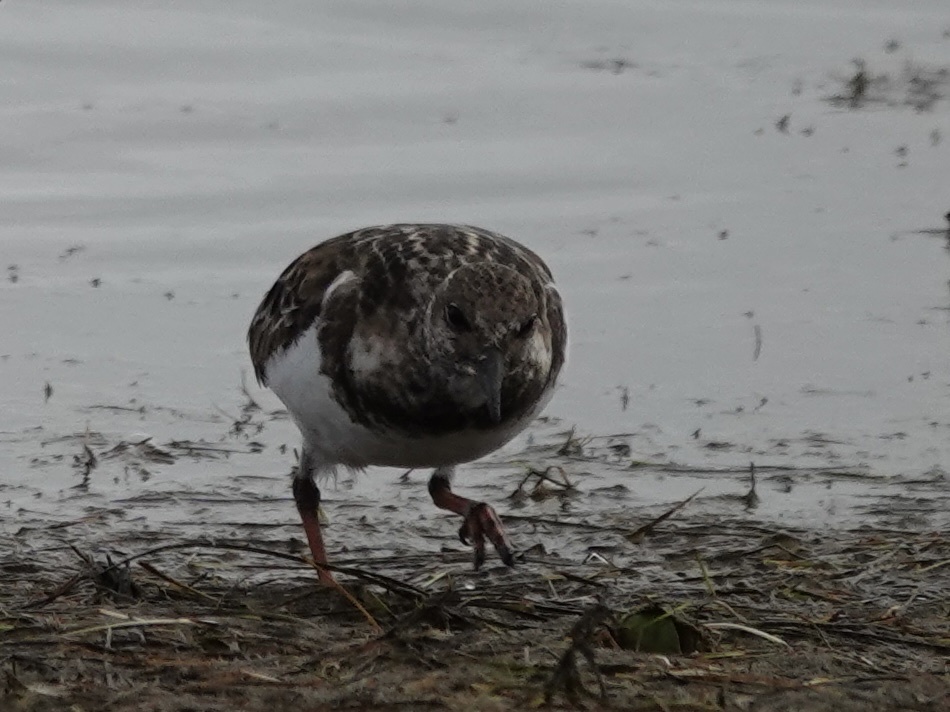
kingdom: Animalia
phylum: Chordata
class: Aves
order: Charadriiformes
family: Scolopacidae
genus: Arenaria
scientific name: Arenaria interpres
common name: Ruddy turnstone
